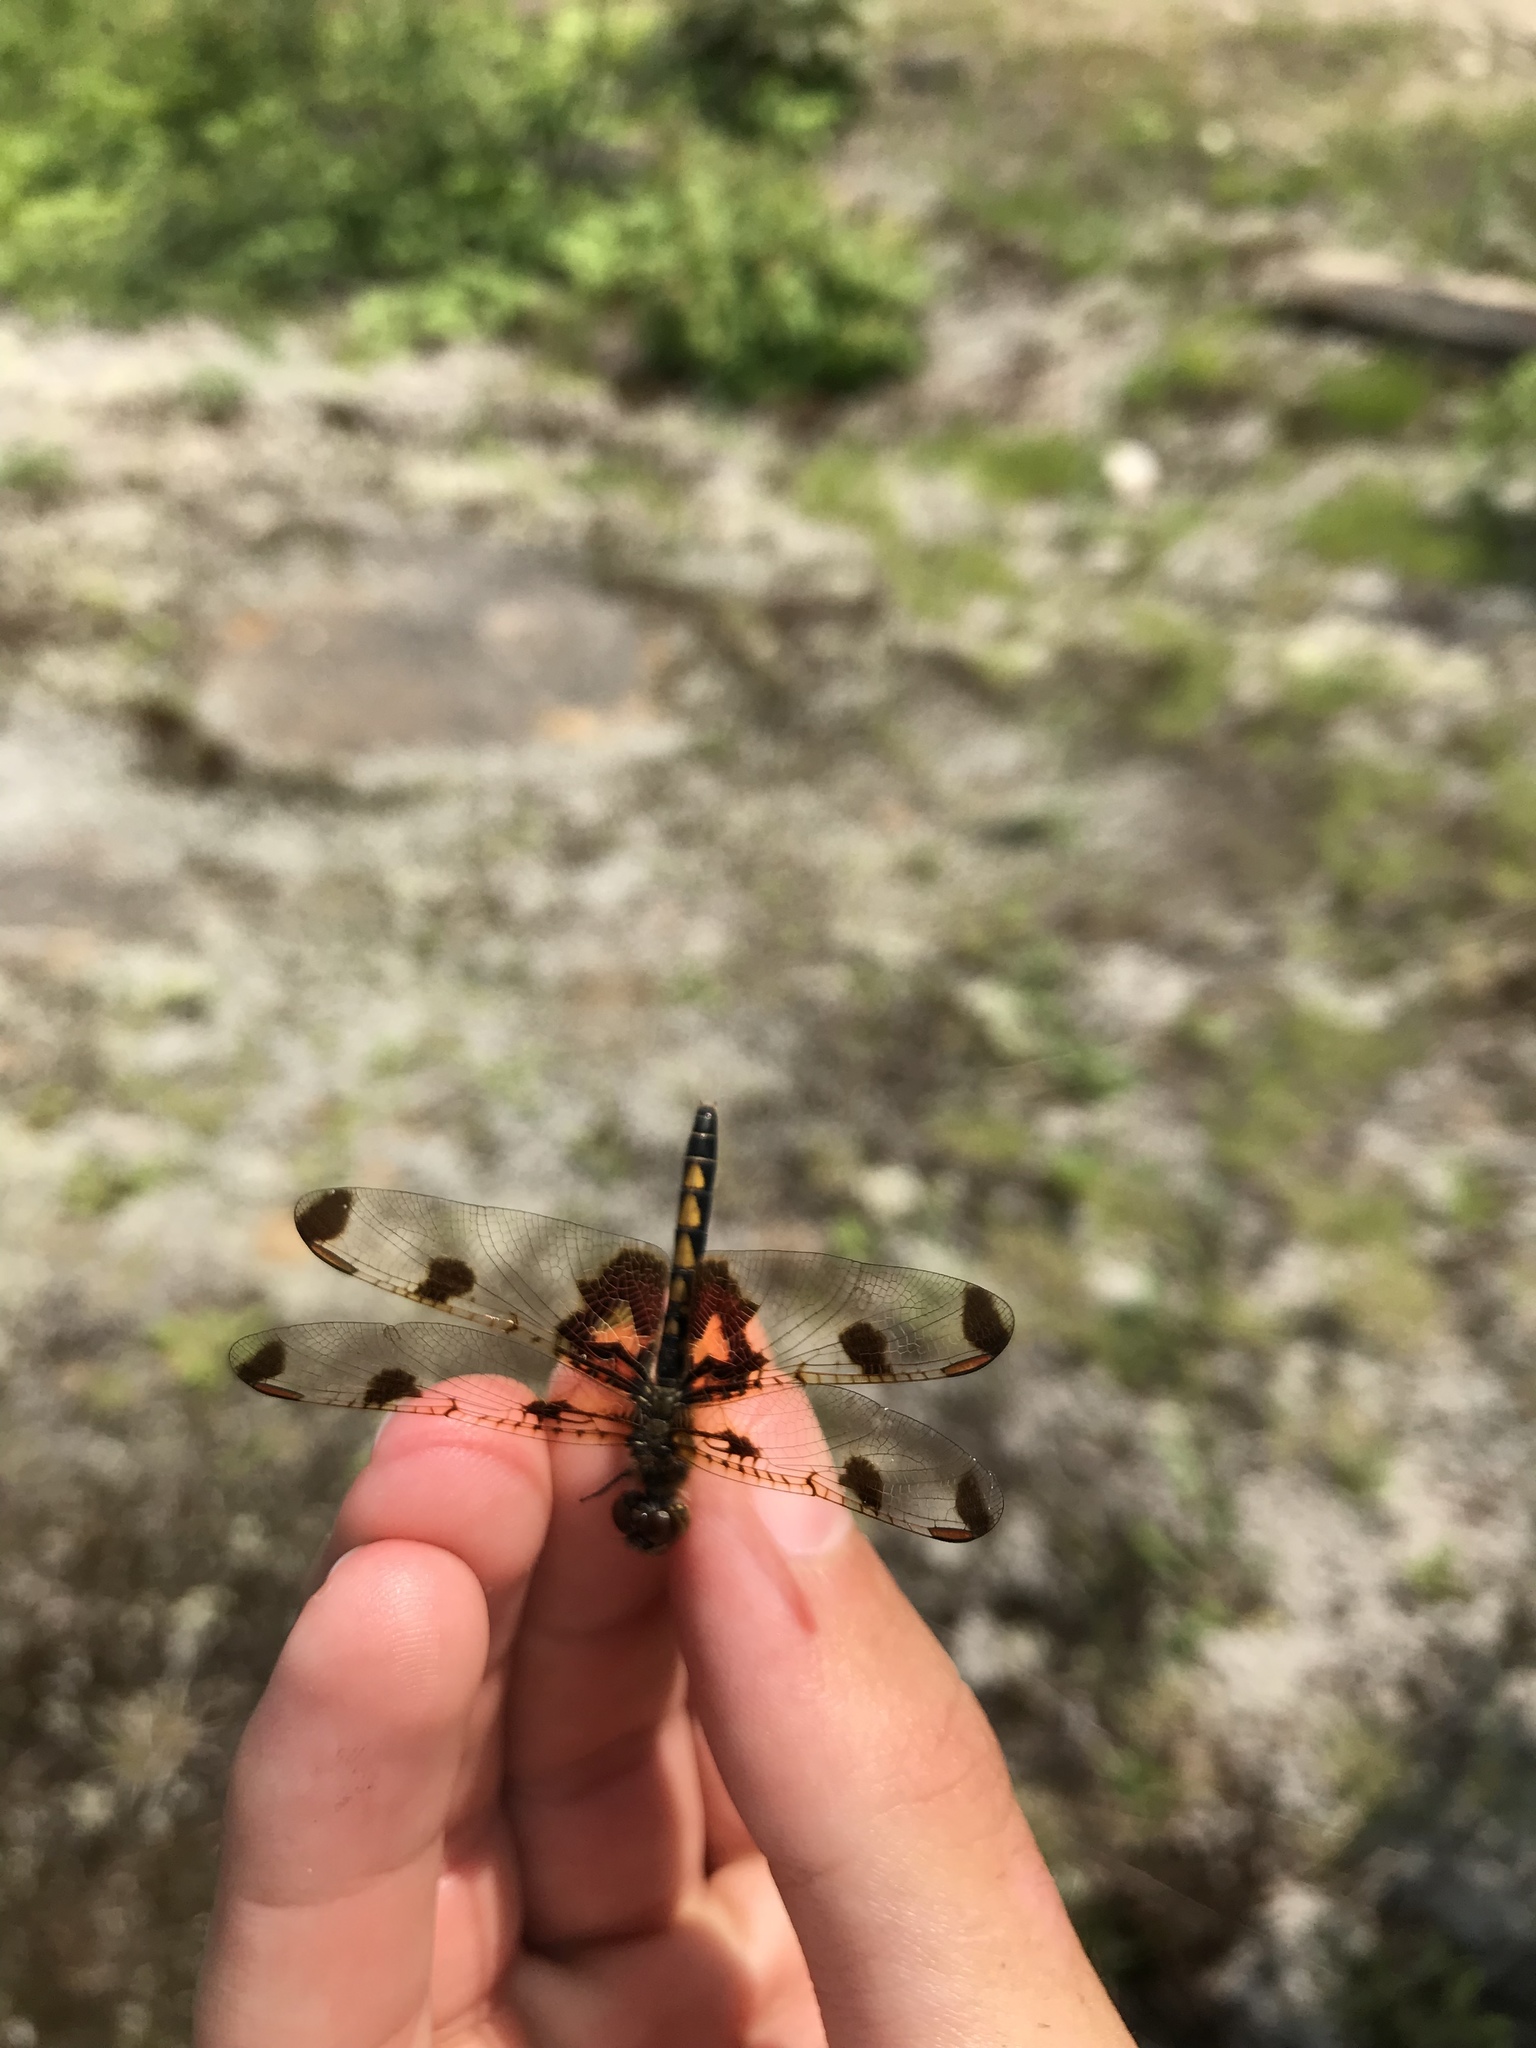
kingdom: Animalia
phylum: Arthropoda
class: Insecta
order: Odonata
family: Libellulidae
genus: Celithemis
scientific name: Celithemis elisa
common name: Calico pennant
